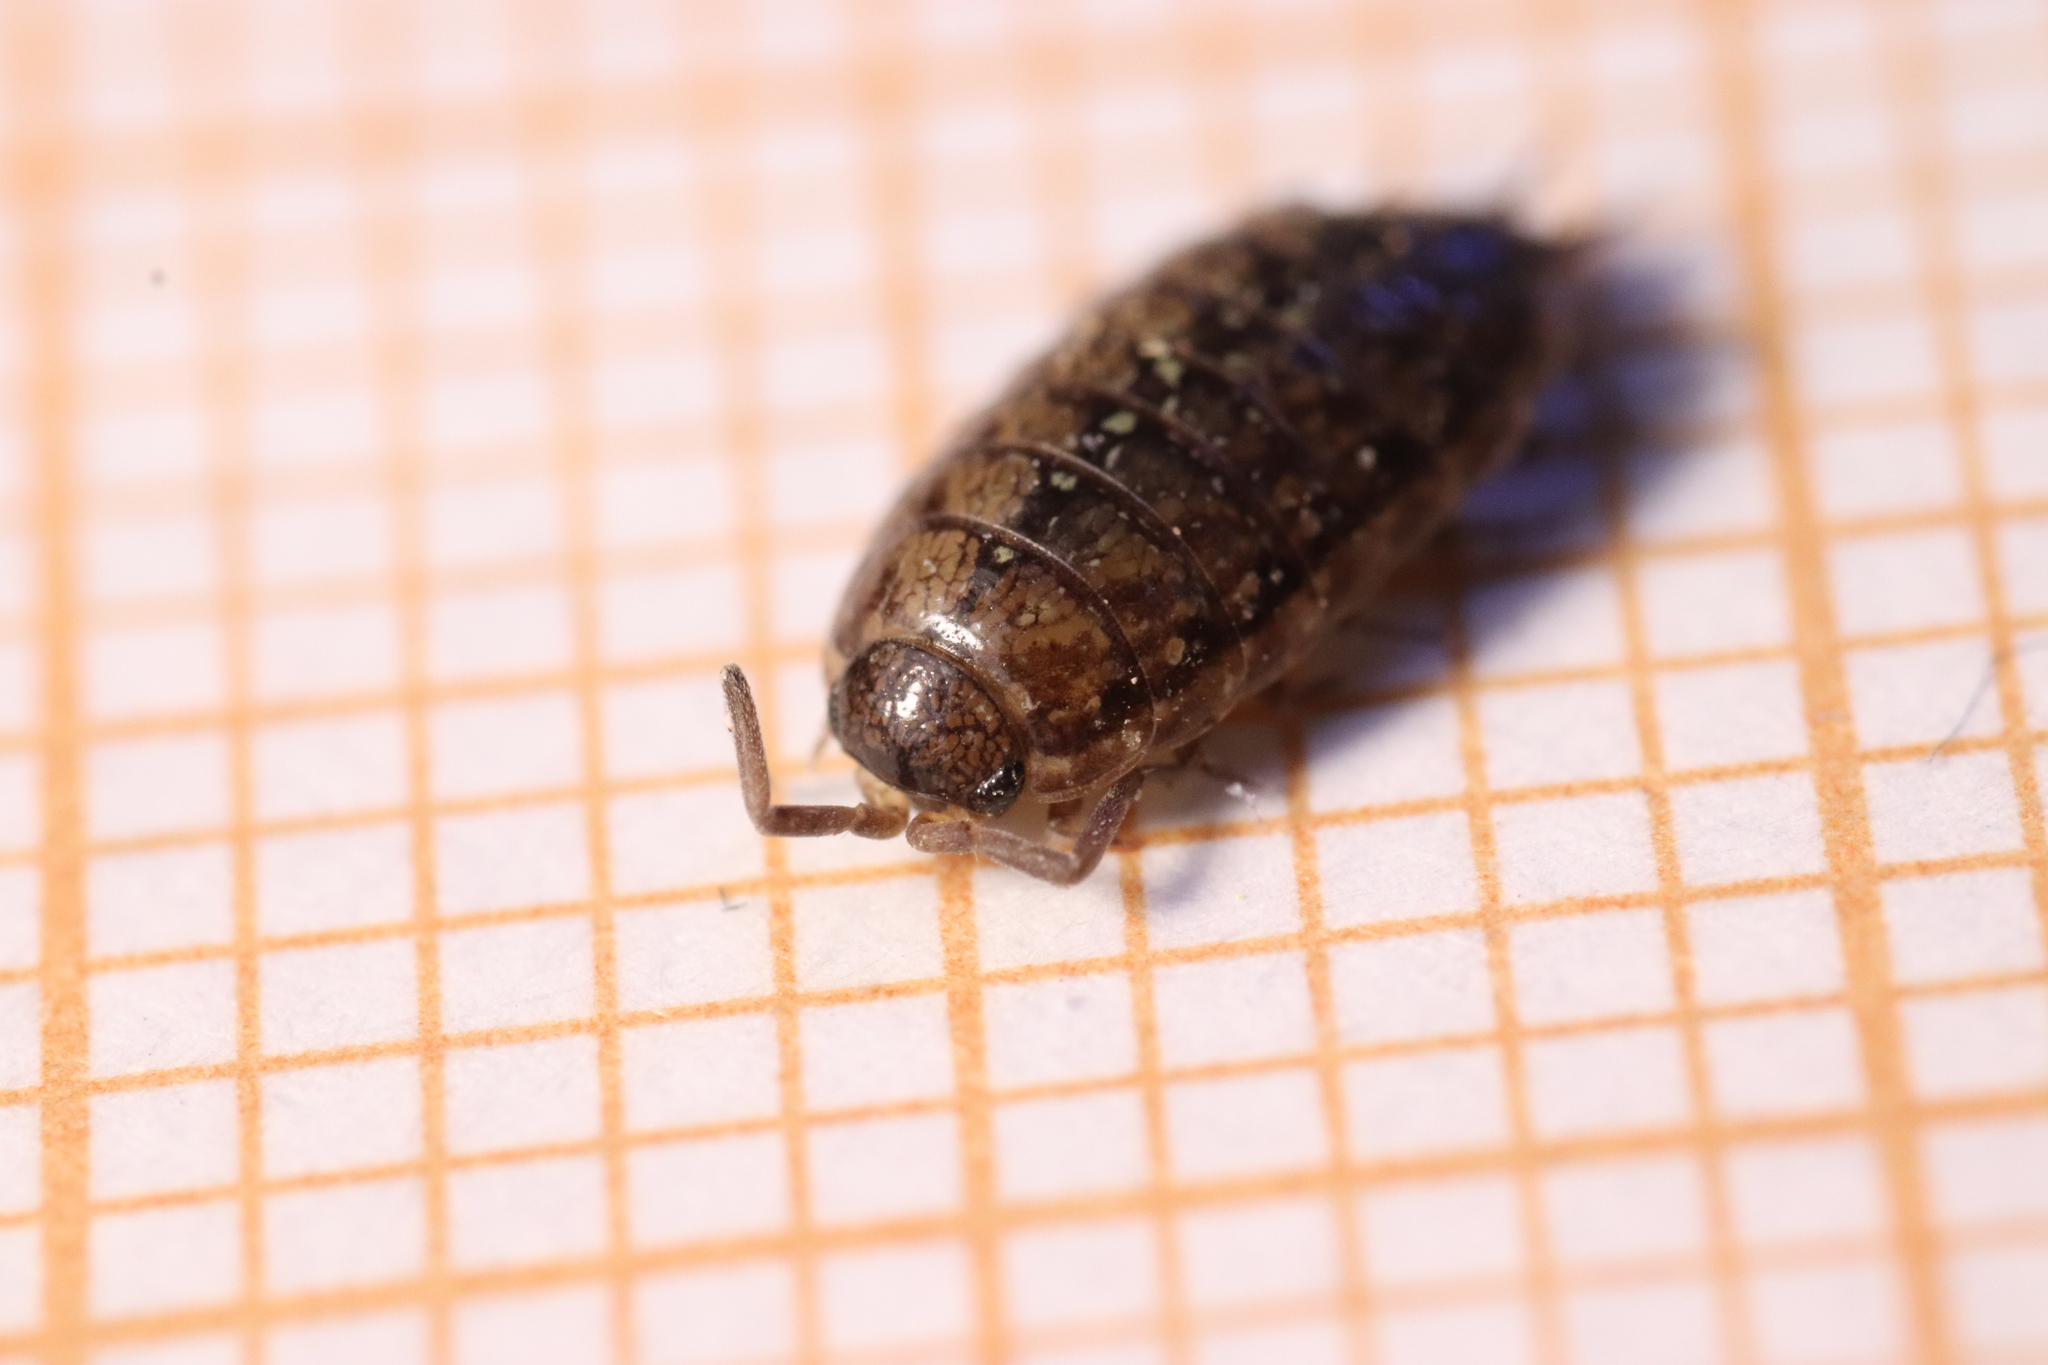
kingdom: Animalia
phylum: Arthropoda
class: Malacostraca
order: Isopoda
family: Philosciidae
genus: Philoscia
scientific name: Philoscia affinis
